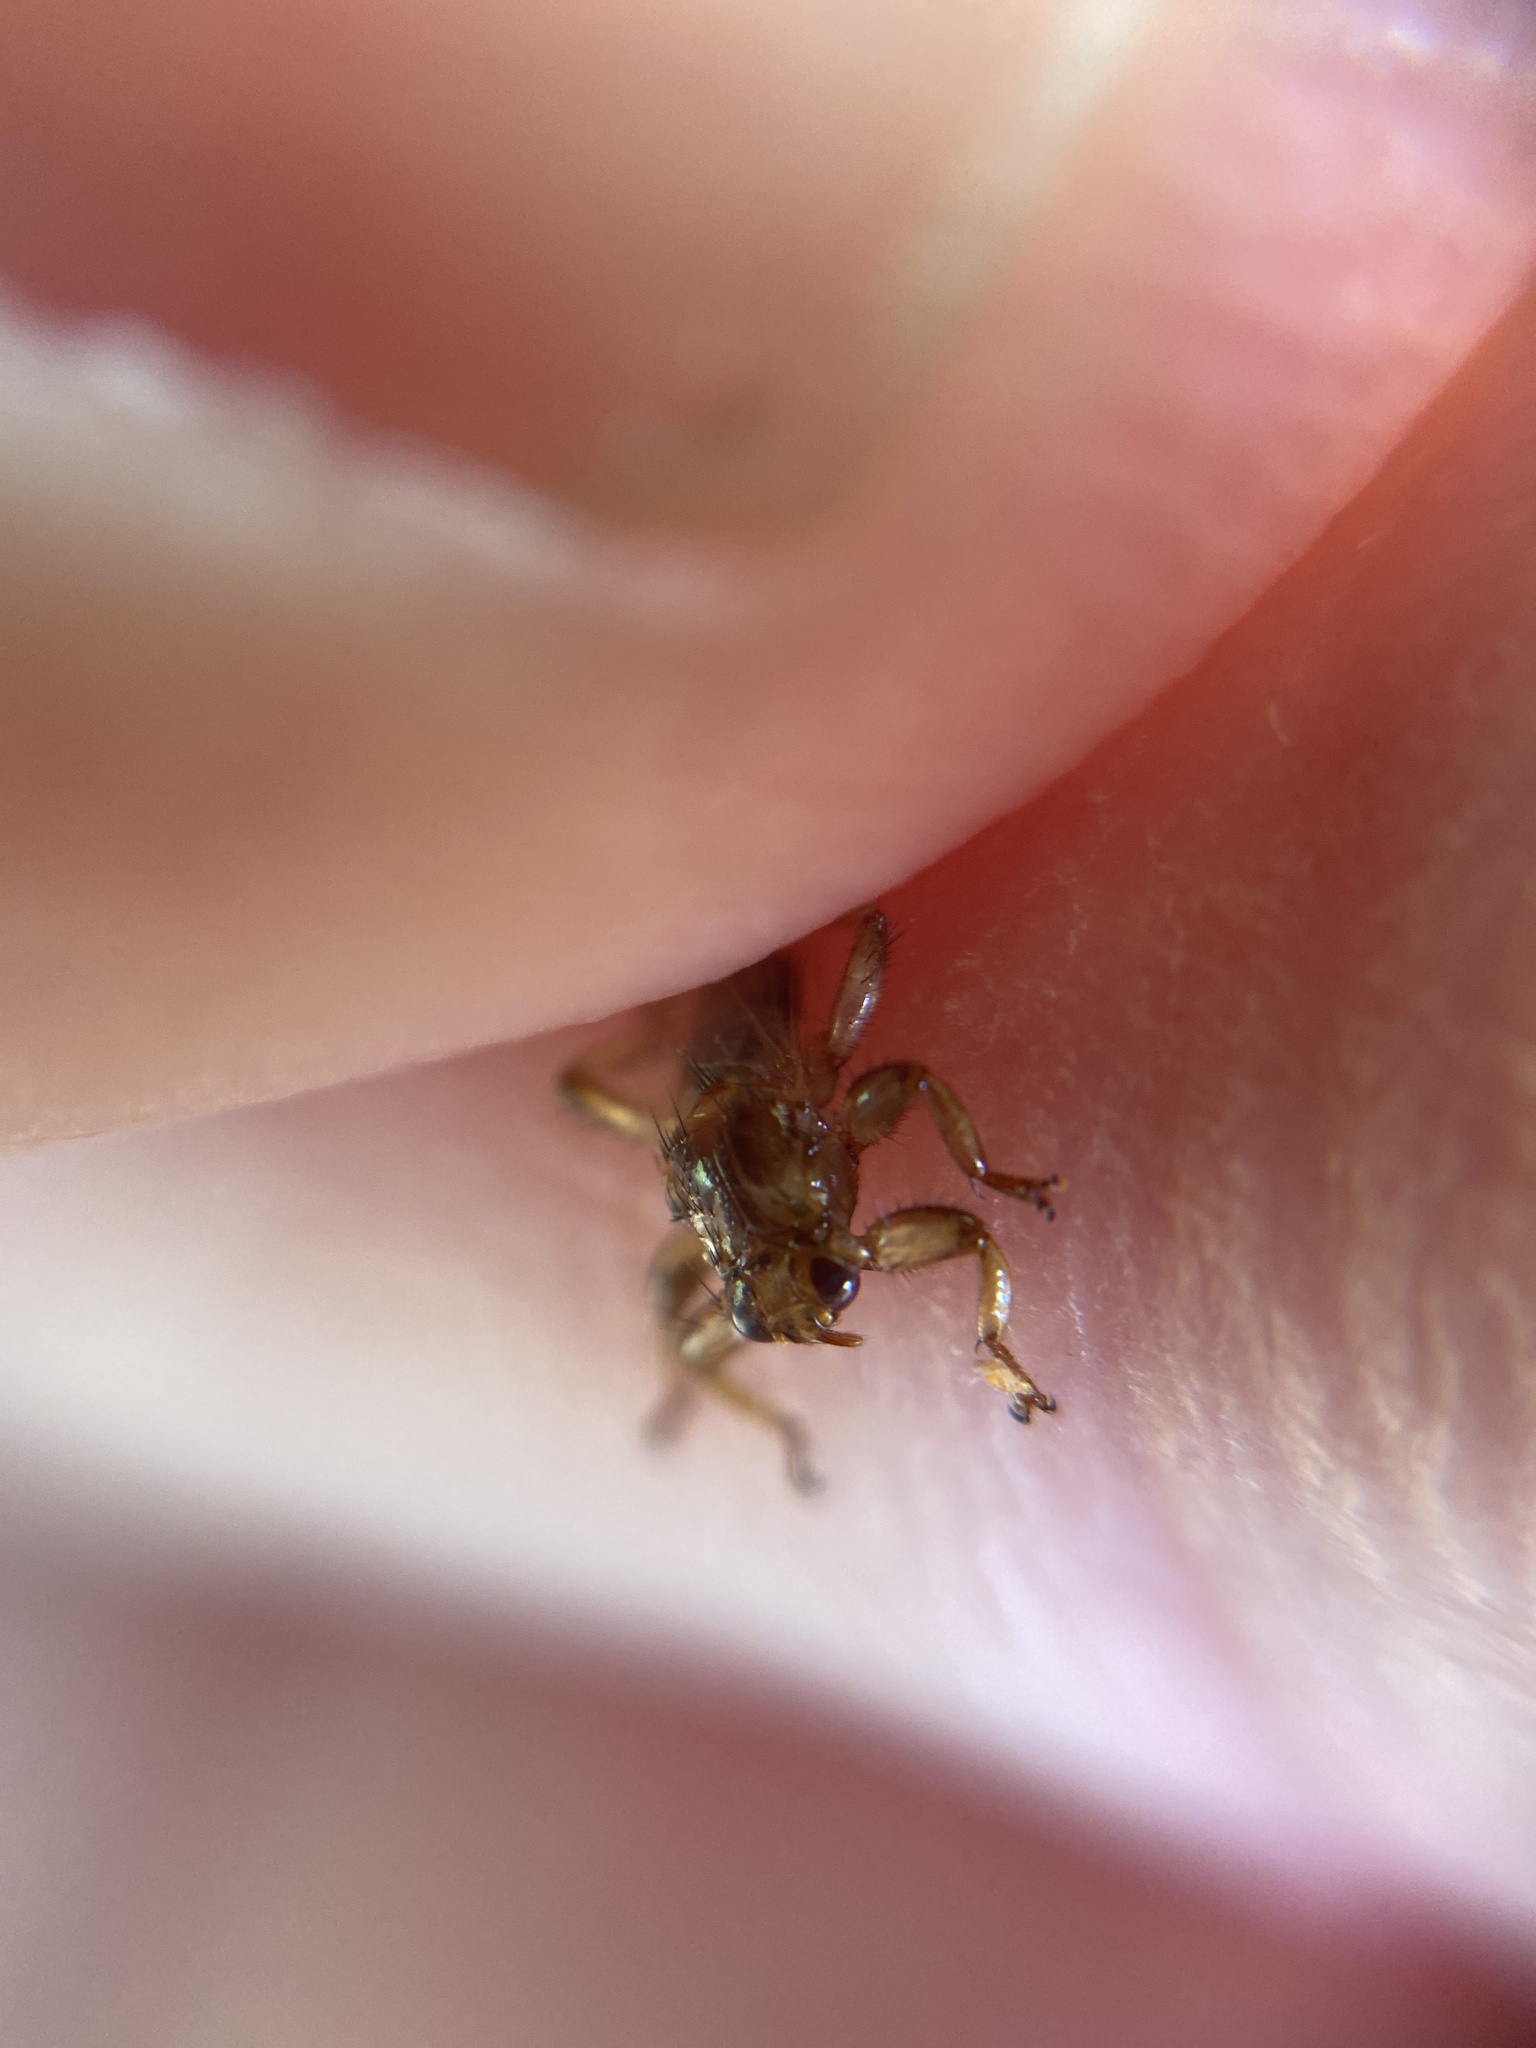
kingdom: Animalia
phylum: Arthropoda
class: Insecta
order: Diptera
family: Hippoboscidae
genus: Lipoptena
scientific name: Lipoptena cervi
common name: Deer ked
